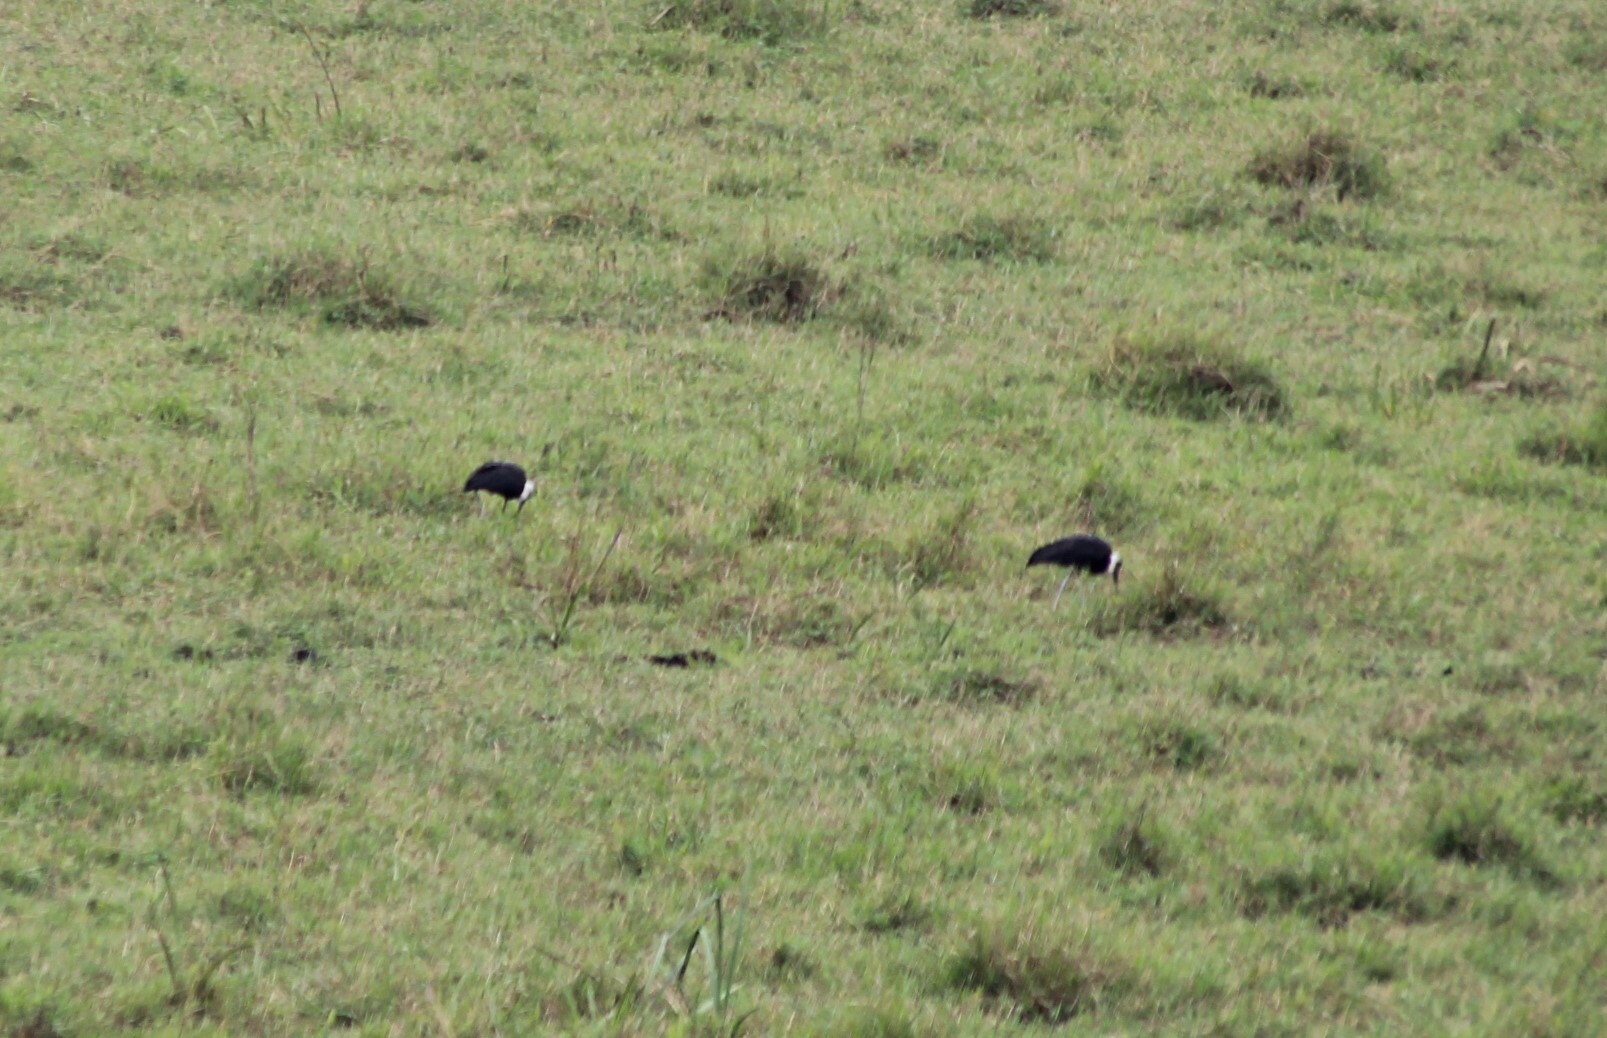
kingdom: Animalia
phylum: Chordata
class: Aves
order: Ciconiiformes
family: Ciconiidae
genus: Ciconia
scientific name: Ciconia microscelis
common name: African woollyneck
